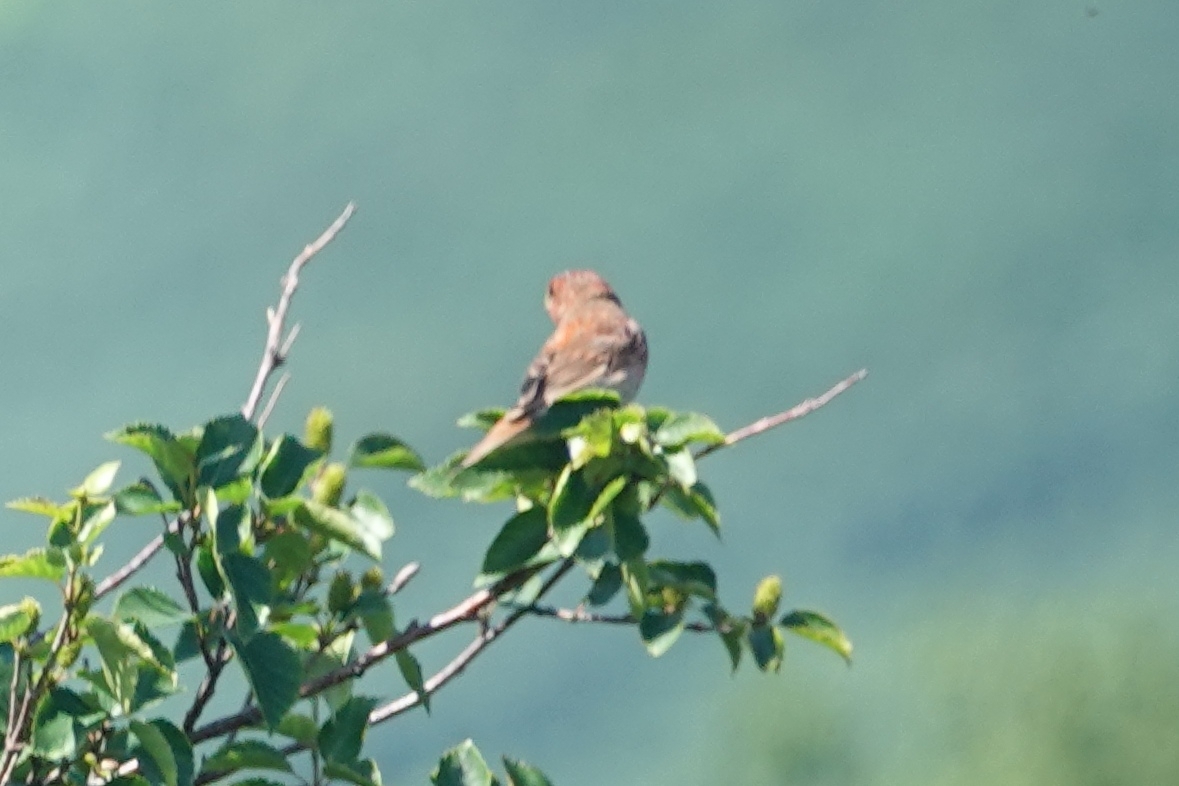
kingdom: Animalia
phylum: Chordata
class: Aves
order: Passeriformes
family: Fringillidae
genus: Carpodacus
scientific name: Carpodacus erythrinus
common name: Common rosefinch
